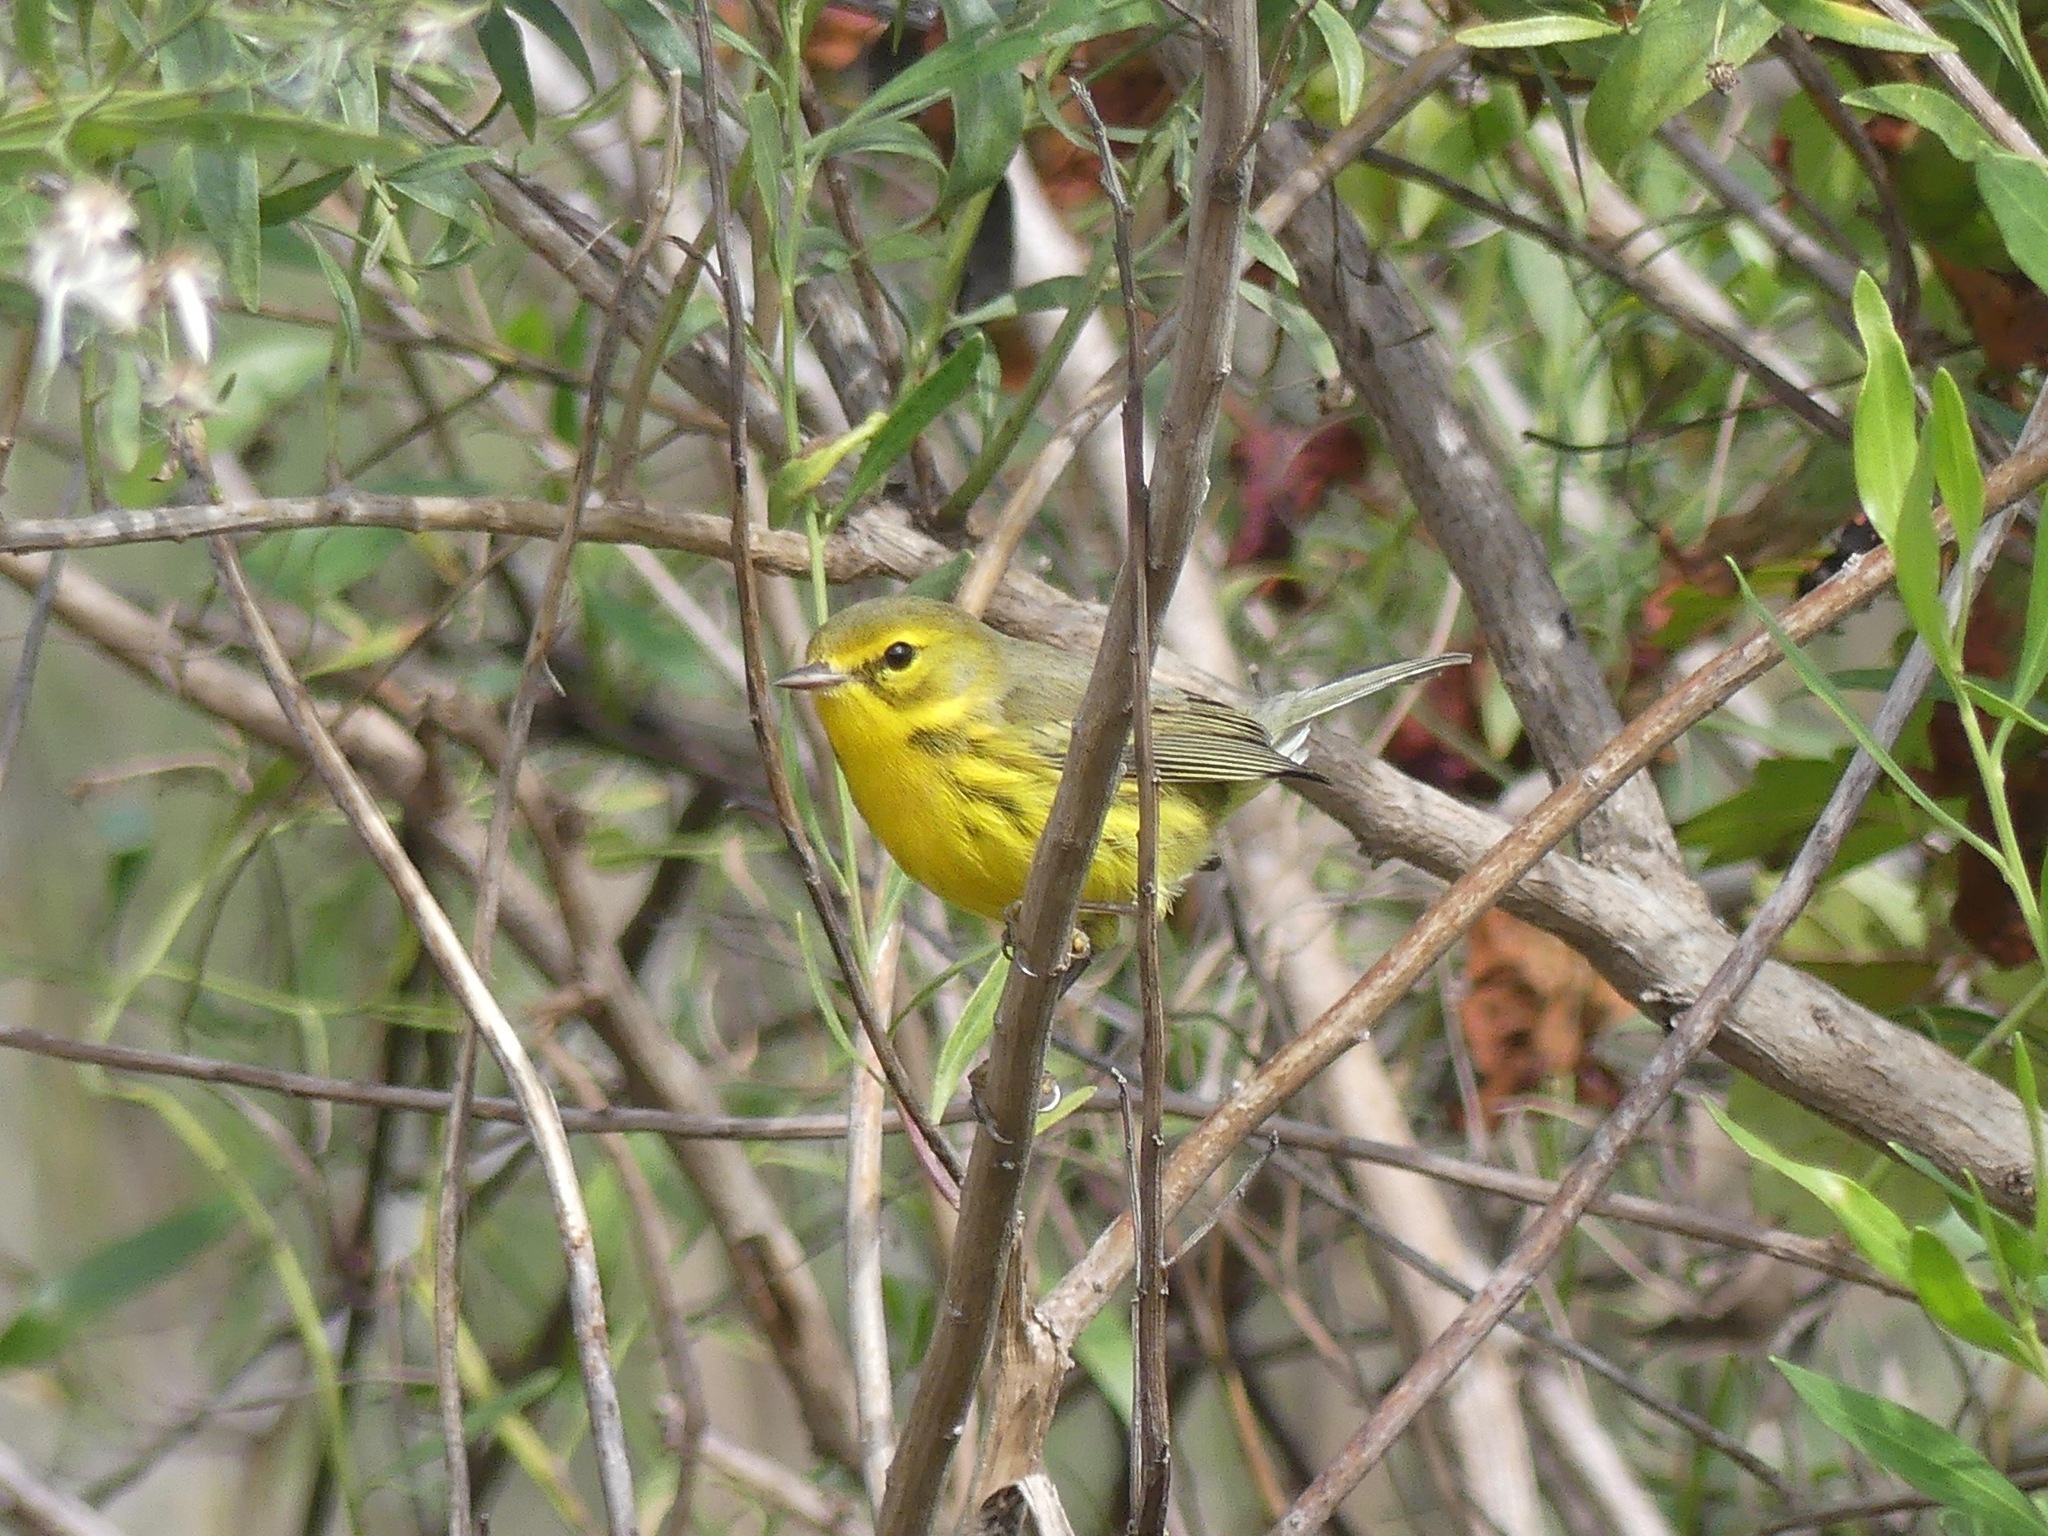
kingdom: Animalia
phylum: Chordata
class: Aves
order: Passeriformes
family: Parulidae
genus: Setophaga
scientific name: Setophaga discolor
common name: Prairie warbler
